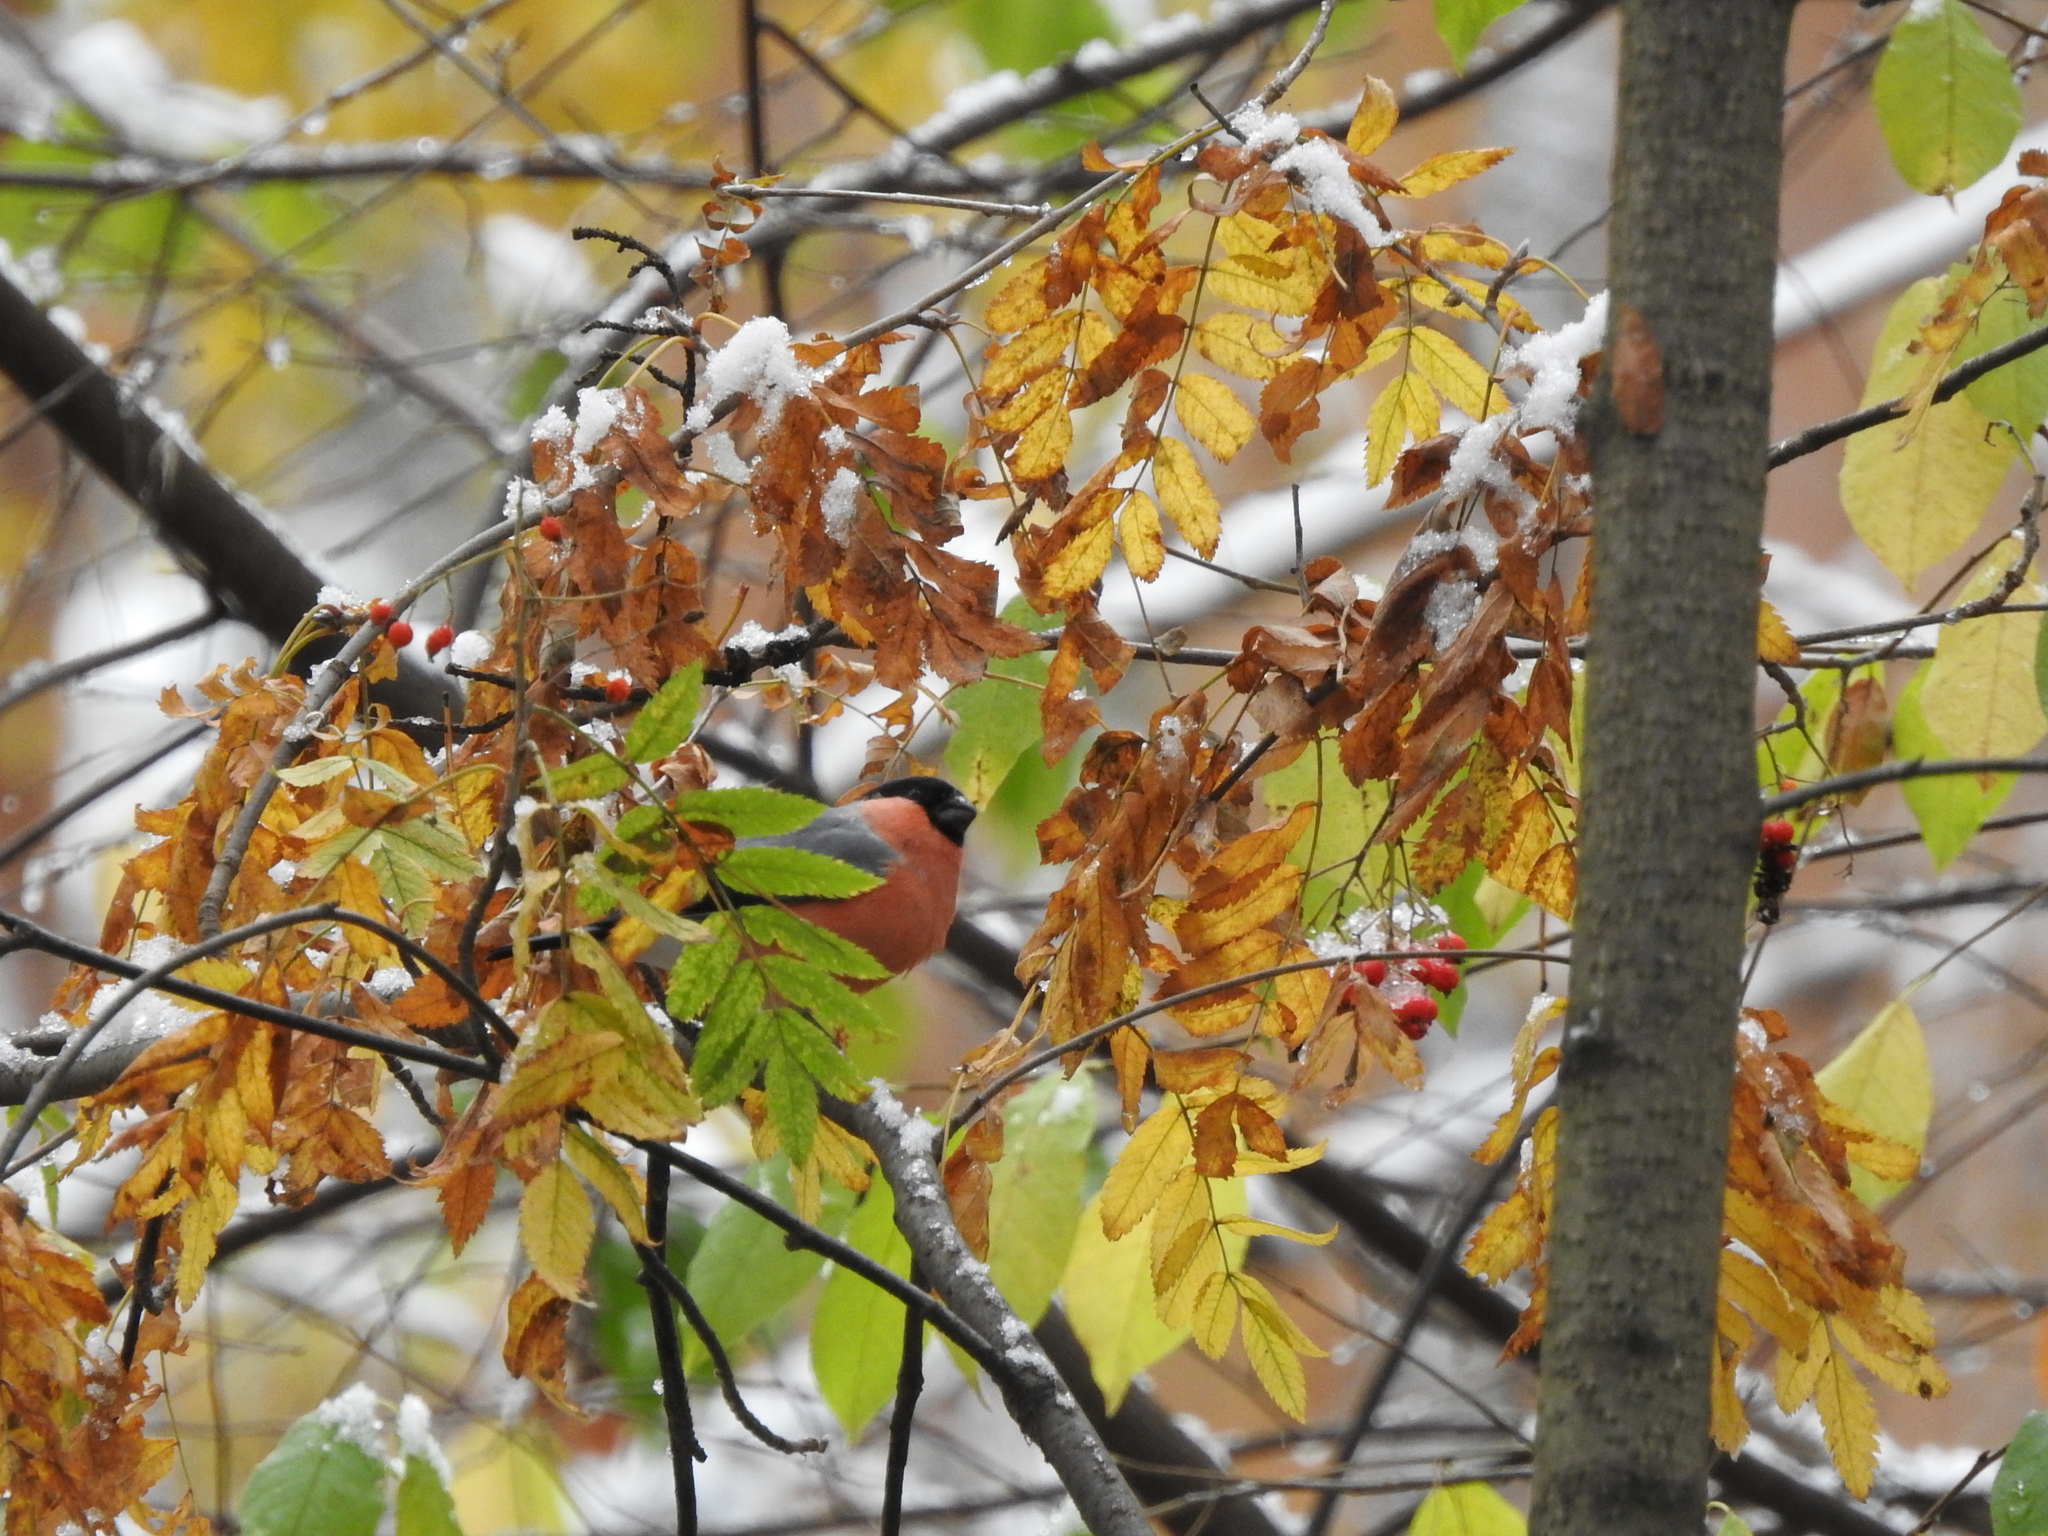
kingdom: Animalia
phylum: Chordata
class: Aves
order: Passeriformes
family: Fringillidae
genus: Pyrrhula
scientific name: Pyrrhula pyrrhula
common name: Eurasian bullfinch
